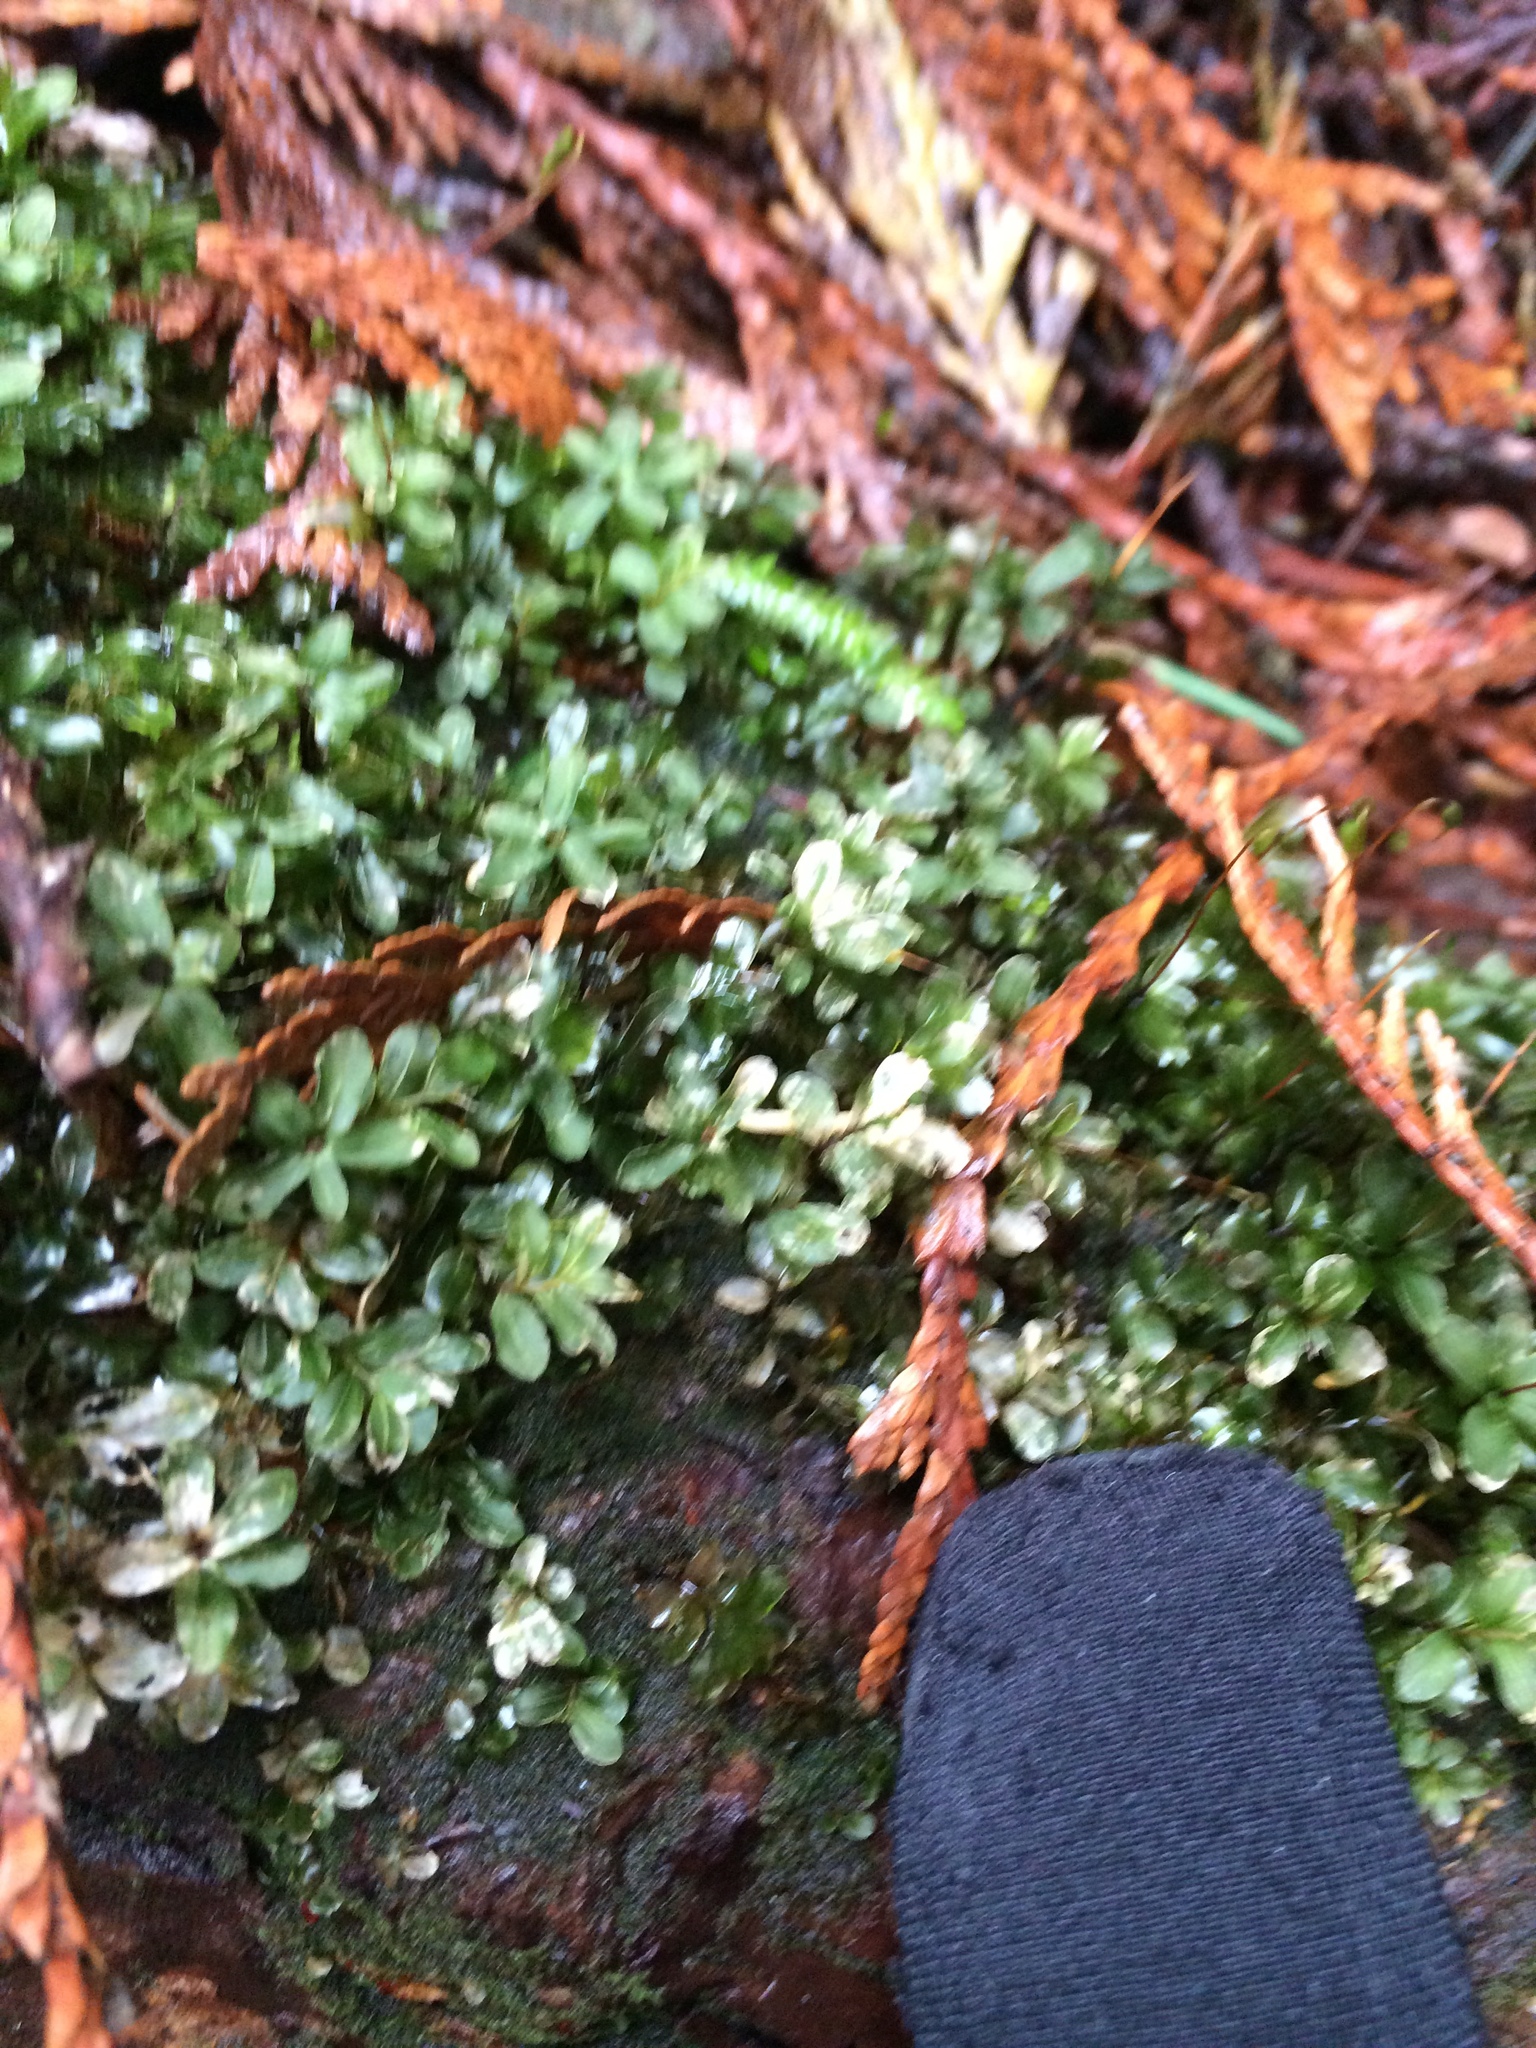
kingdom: Plantae
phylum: Bryophyta
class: Bryopsida
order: Bryales
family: Mniaceae
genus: Rhizomnium
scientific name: Rhizomnium glabrescens
